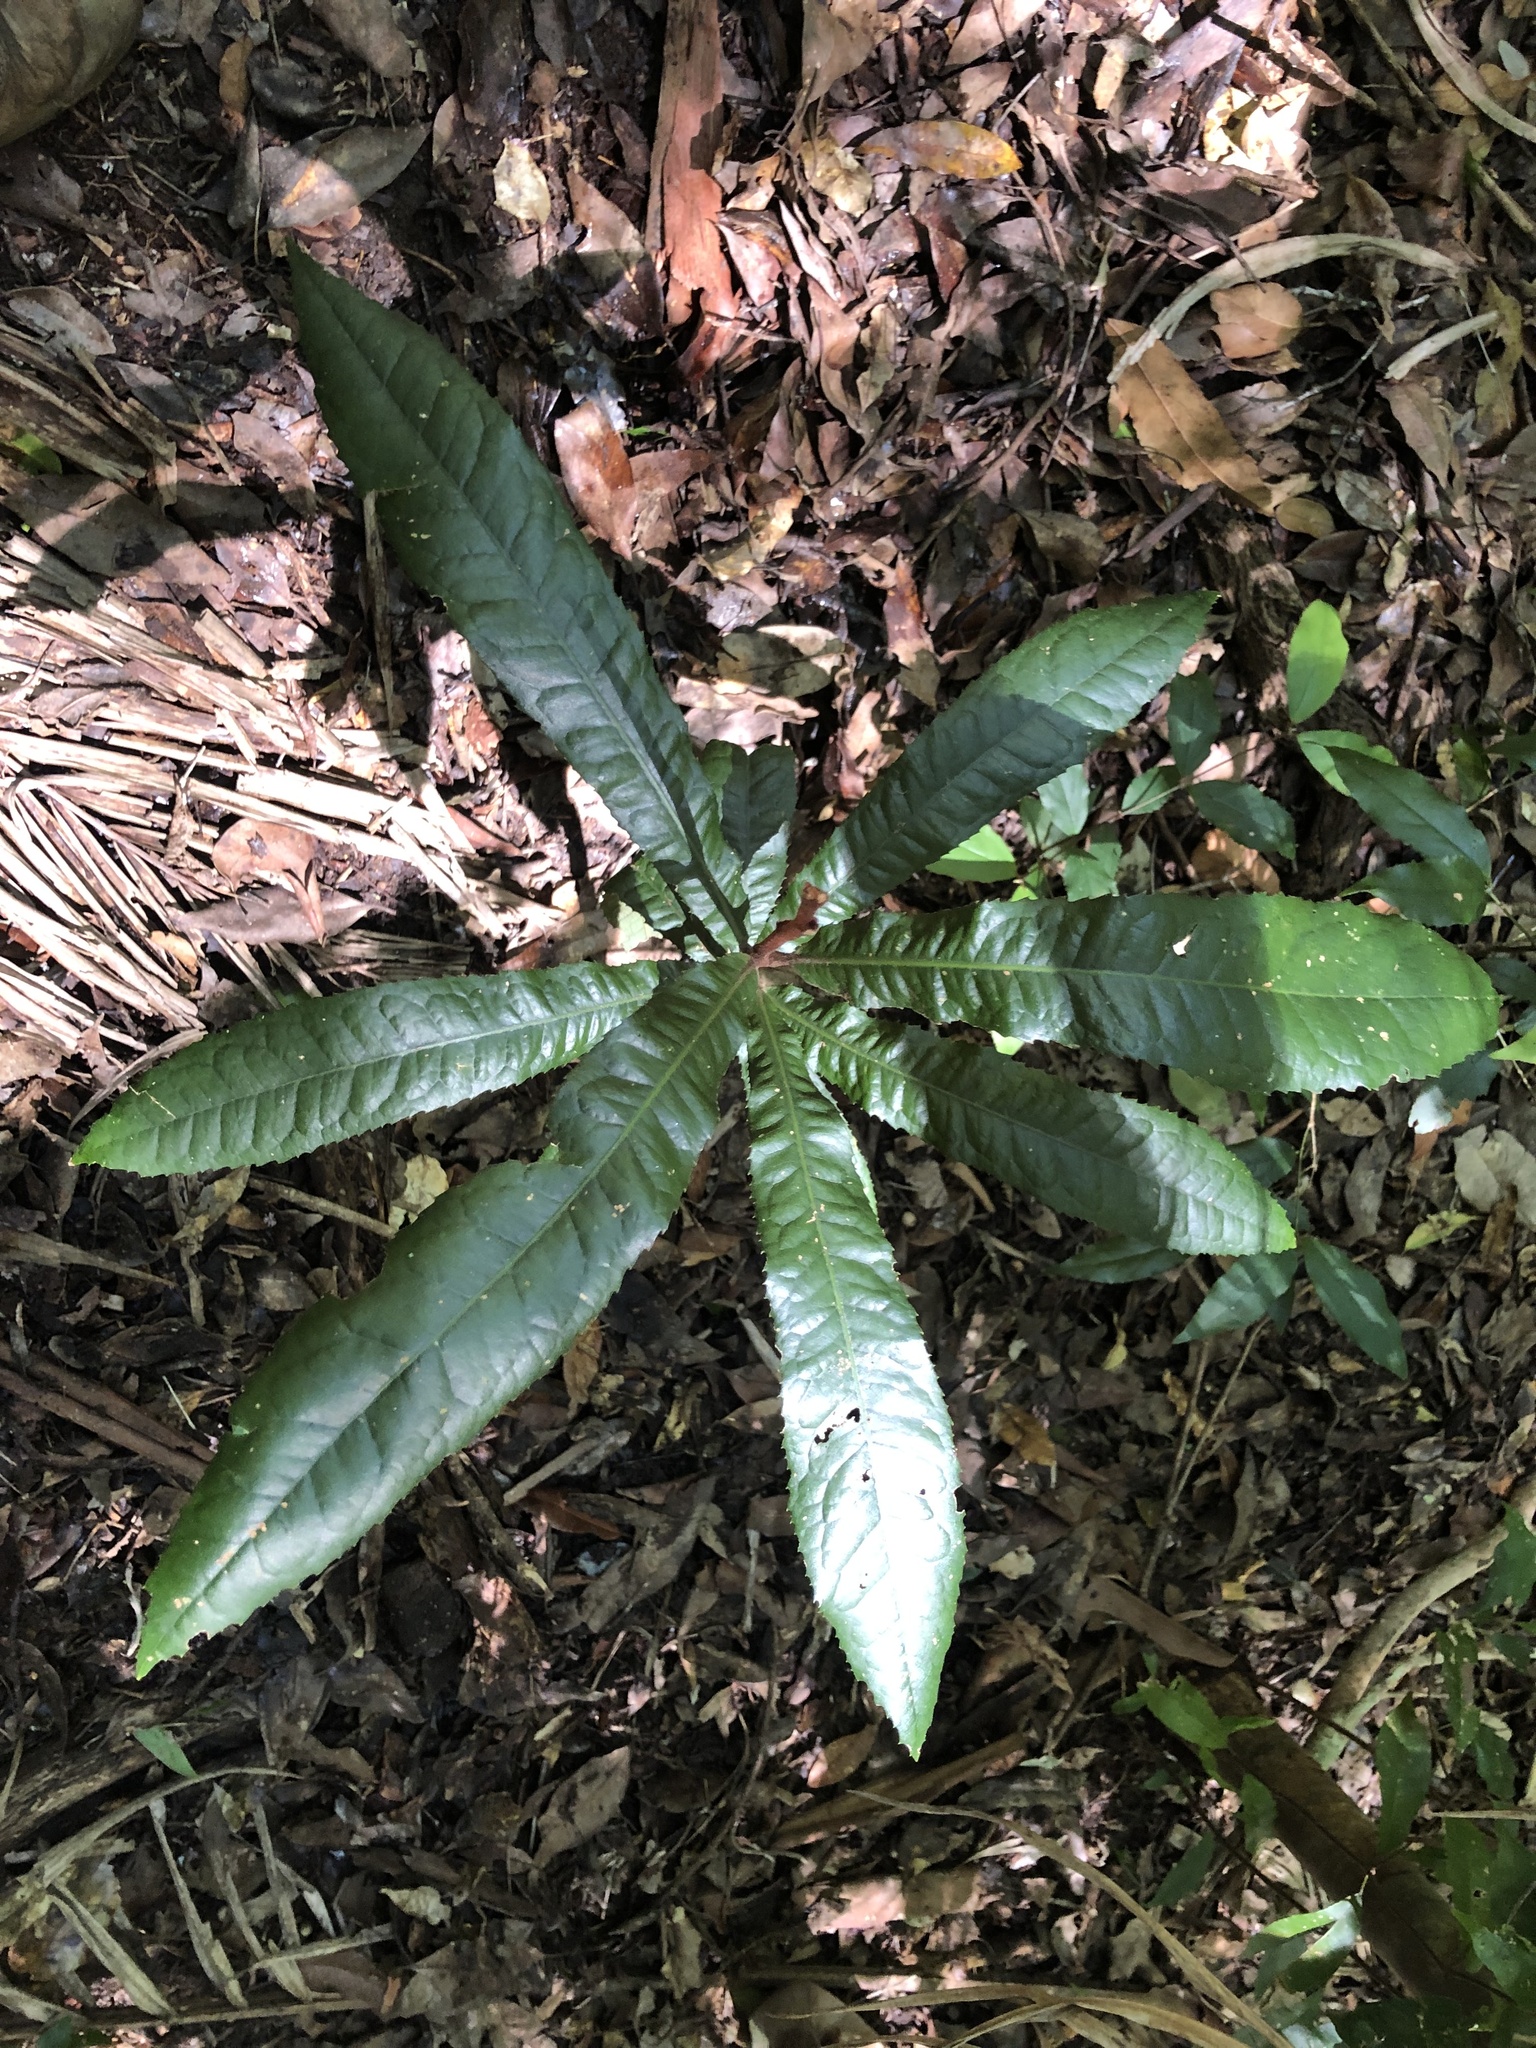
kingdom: Plantae
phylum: Tracheophyta
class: Magnoliopsida
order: Proteales
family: Proteaceae
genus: Helicia
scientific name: Helicia ferruginea
